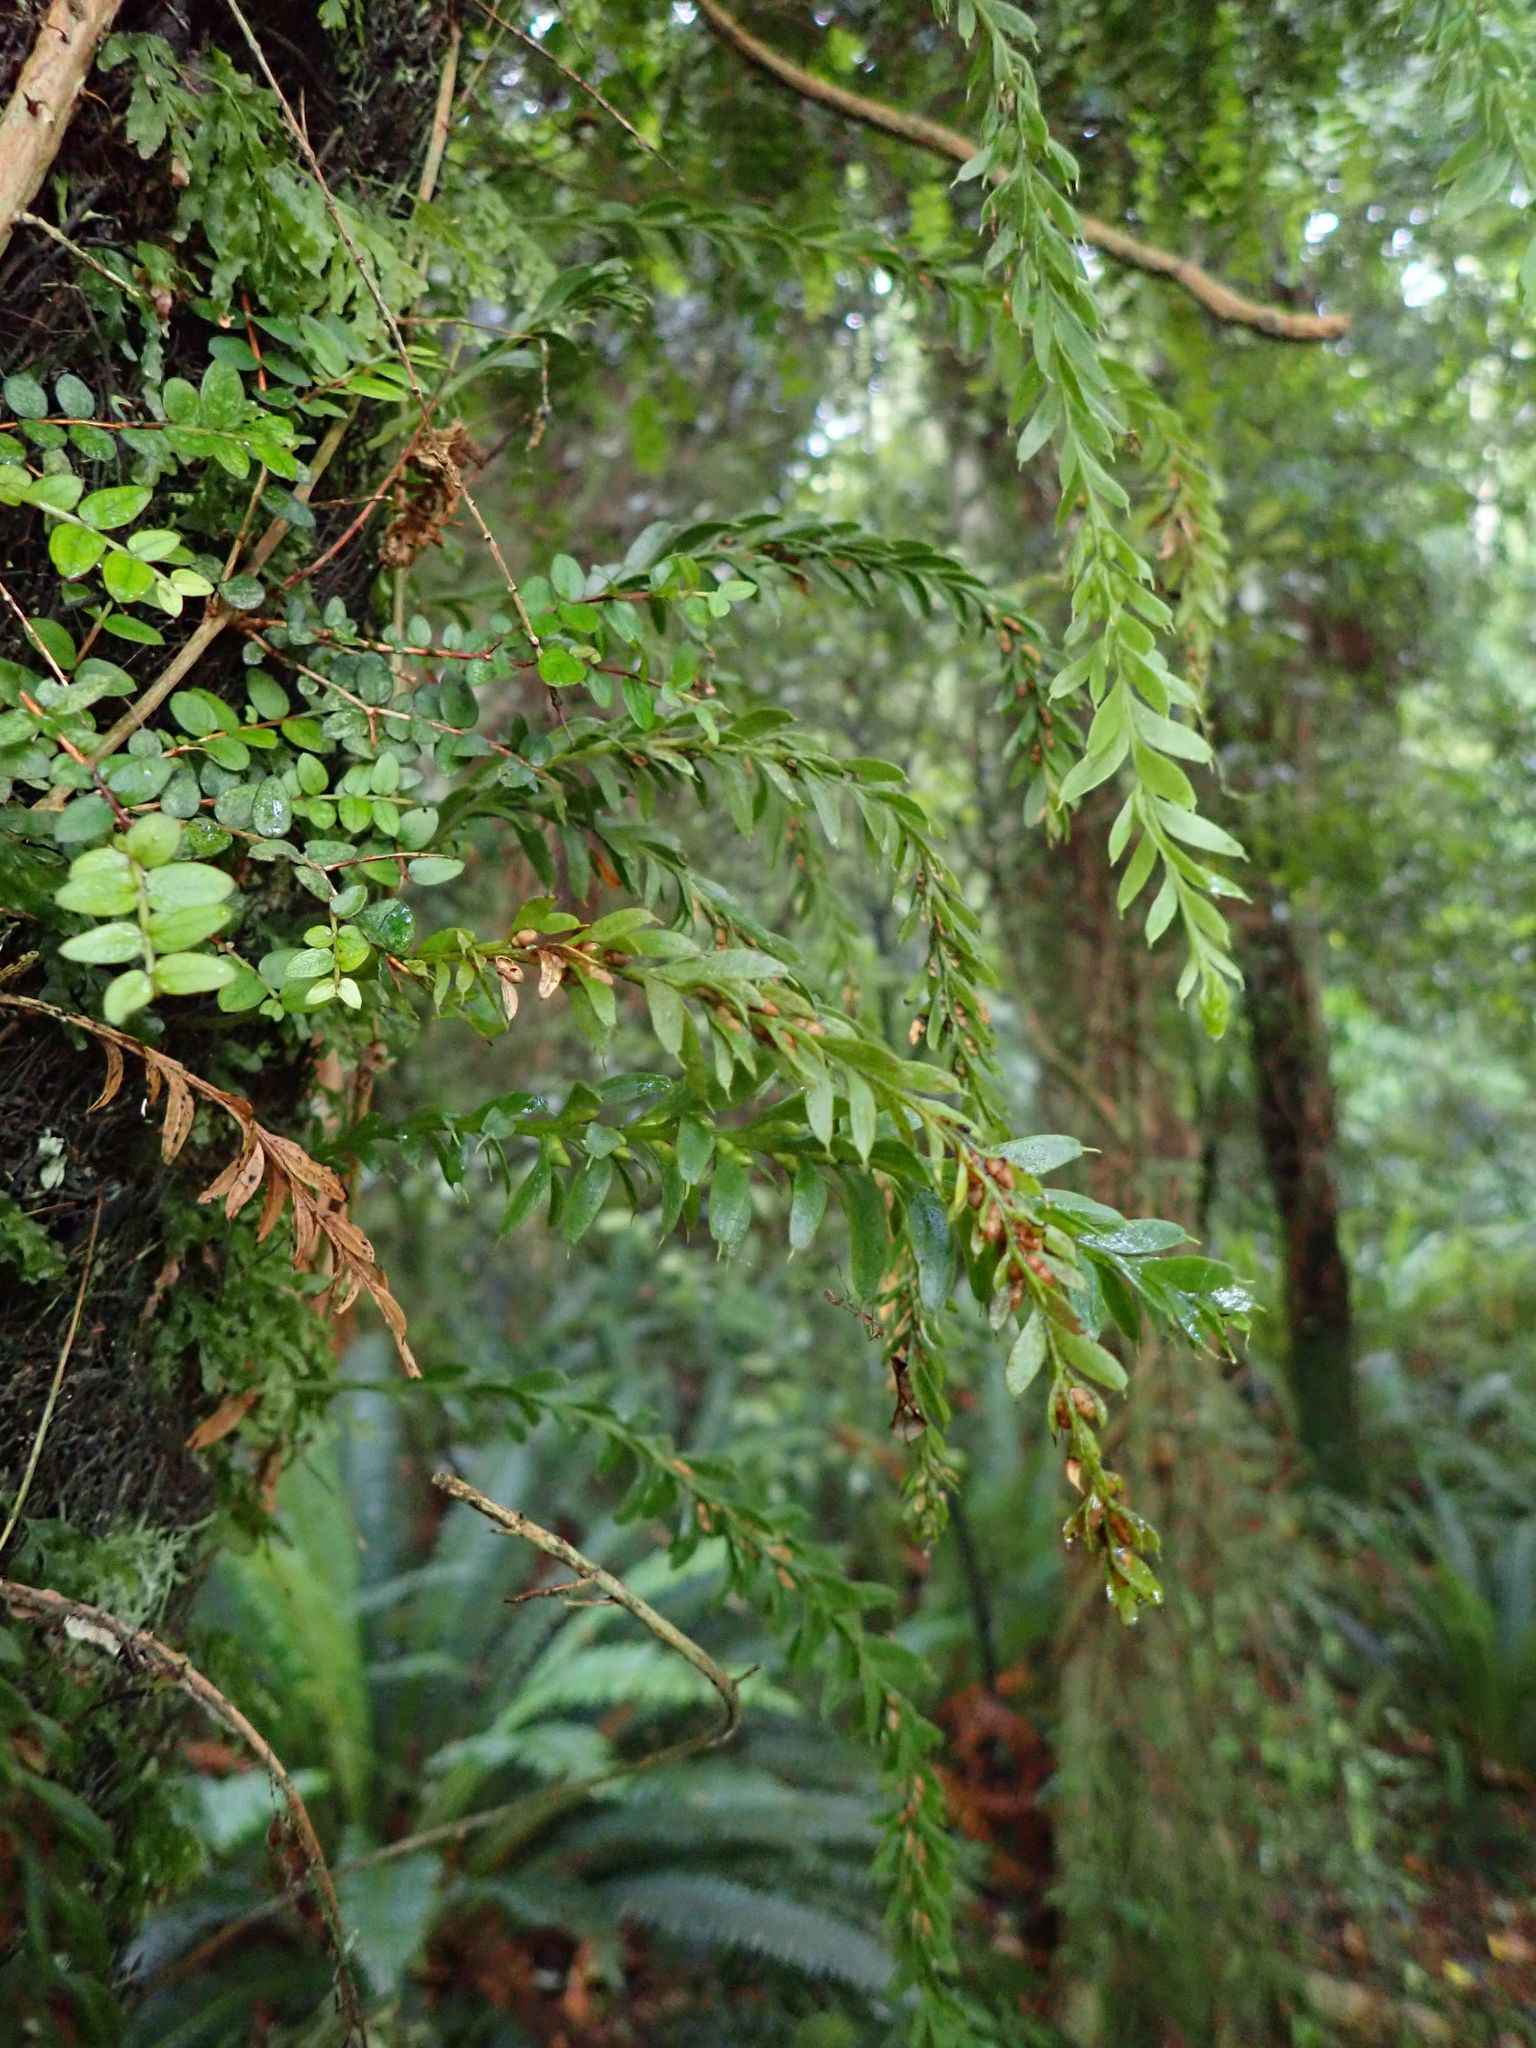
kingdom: Plantae
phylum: Tracheophyta
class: Polypodiopsida
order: Psilotales
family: Psilotaceae
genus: Tmesipteris
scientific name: Tmesipteris tannensis
